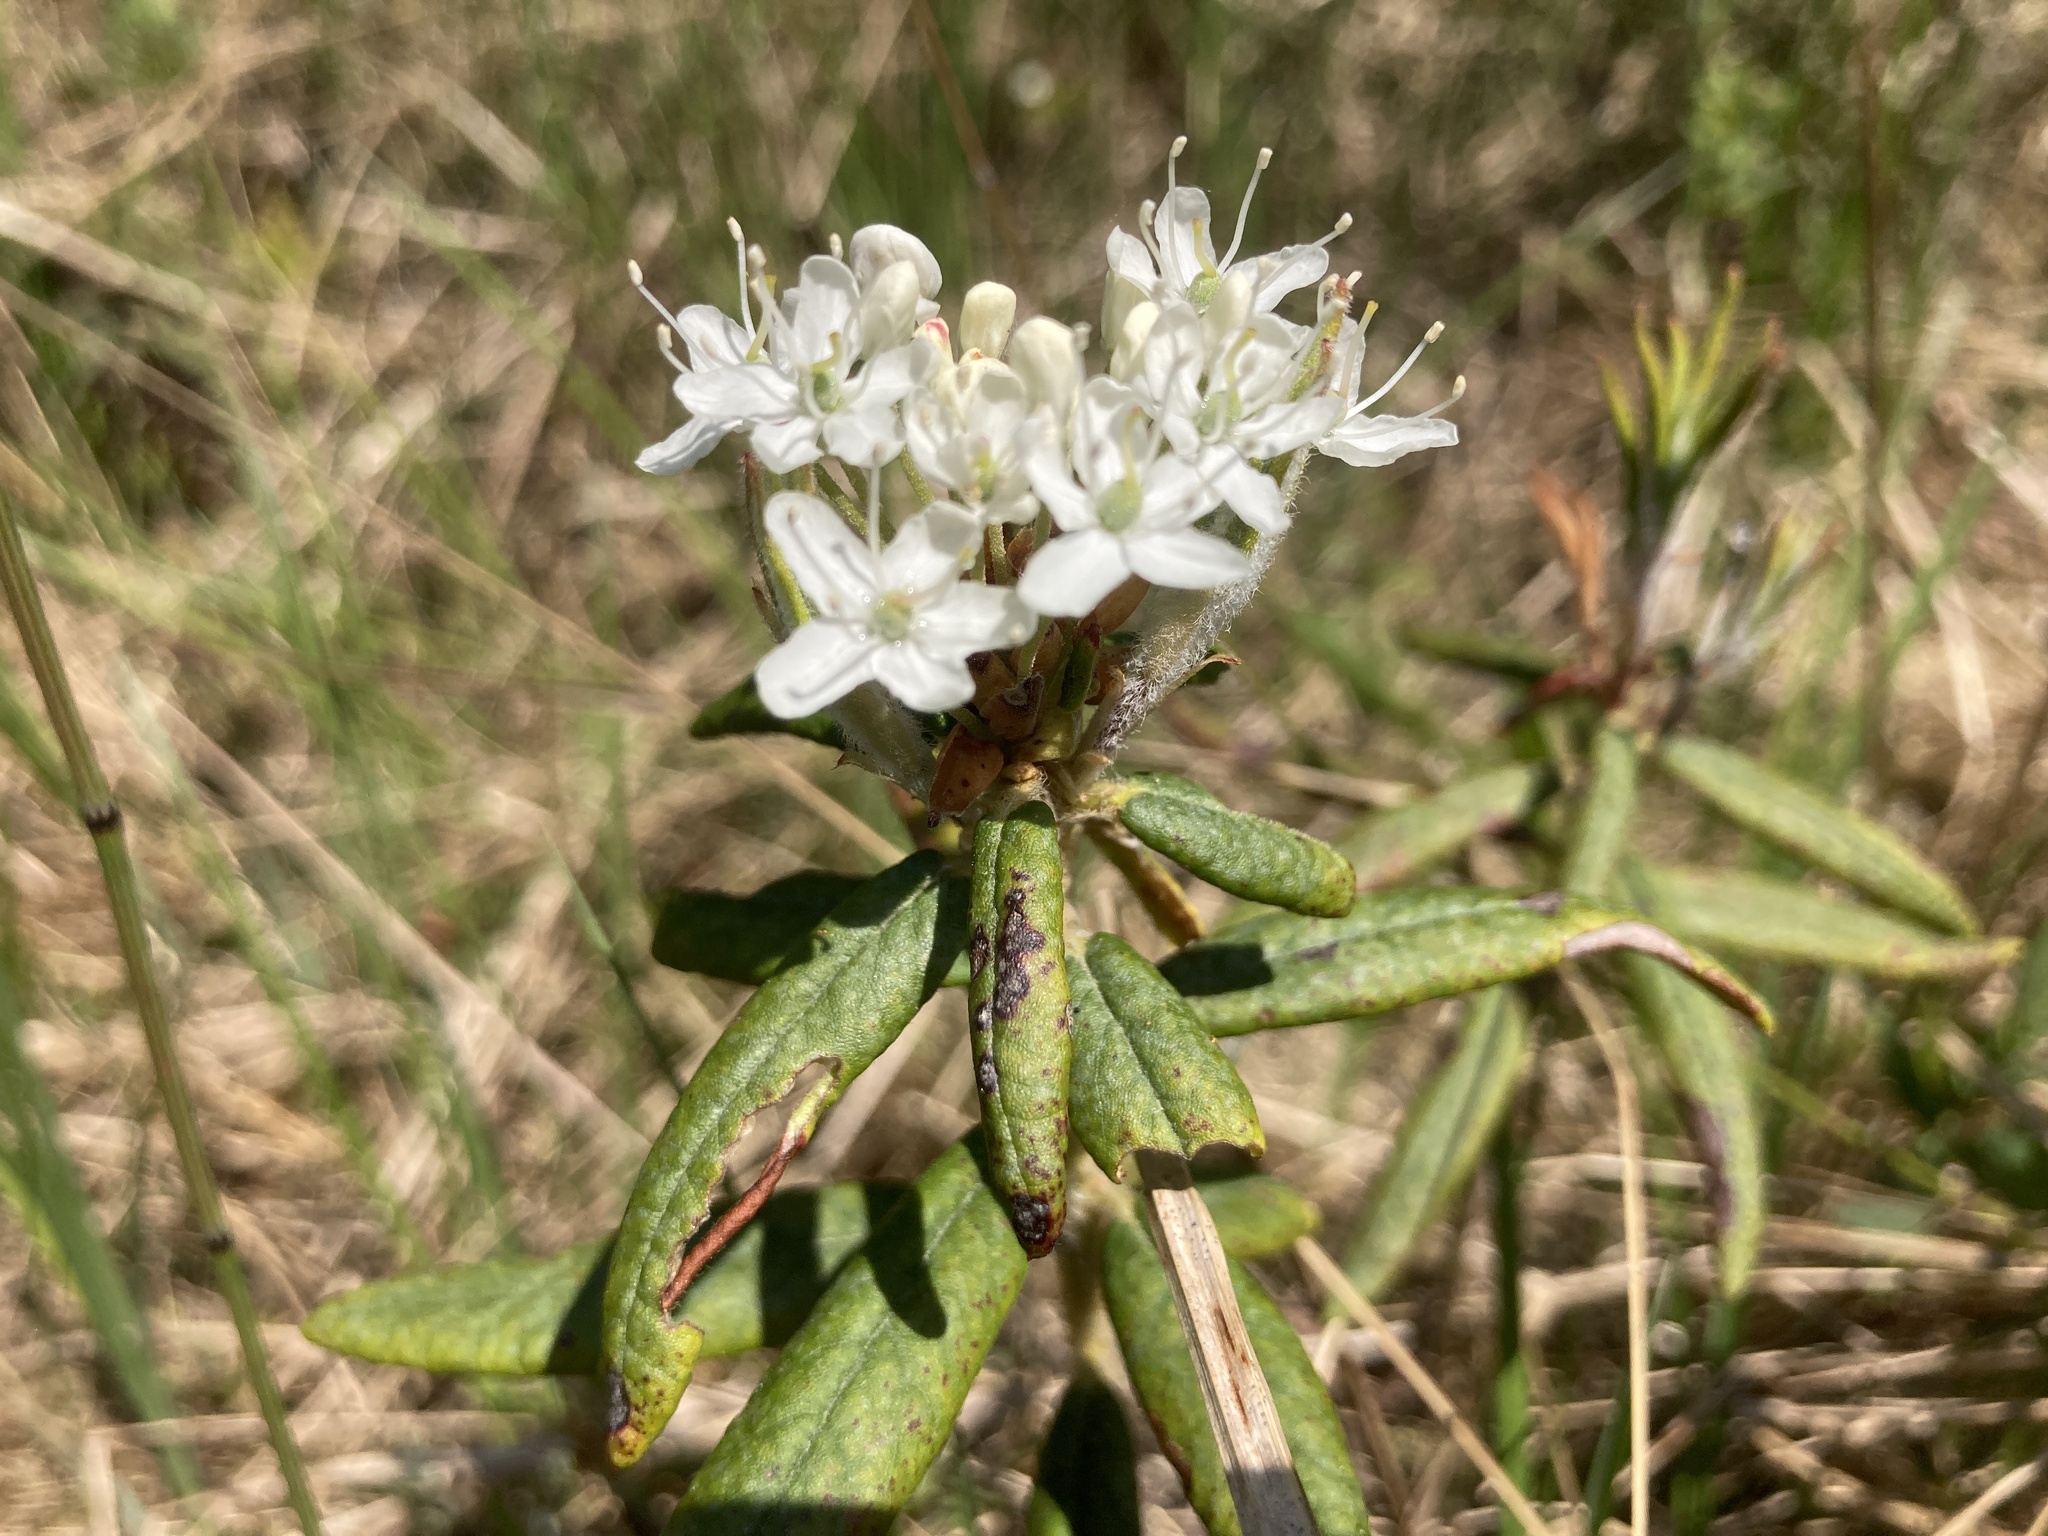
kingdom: Plantae
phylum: Tracheophyta
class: Magnoliopsida
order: Ericales
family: Ericaceae
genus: Rhododendron
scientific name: Rhododendron groenlandicum
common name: Bog labrador tea
